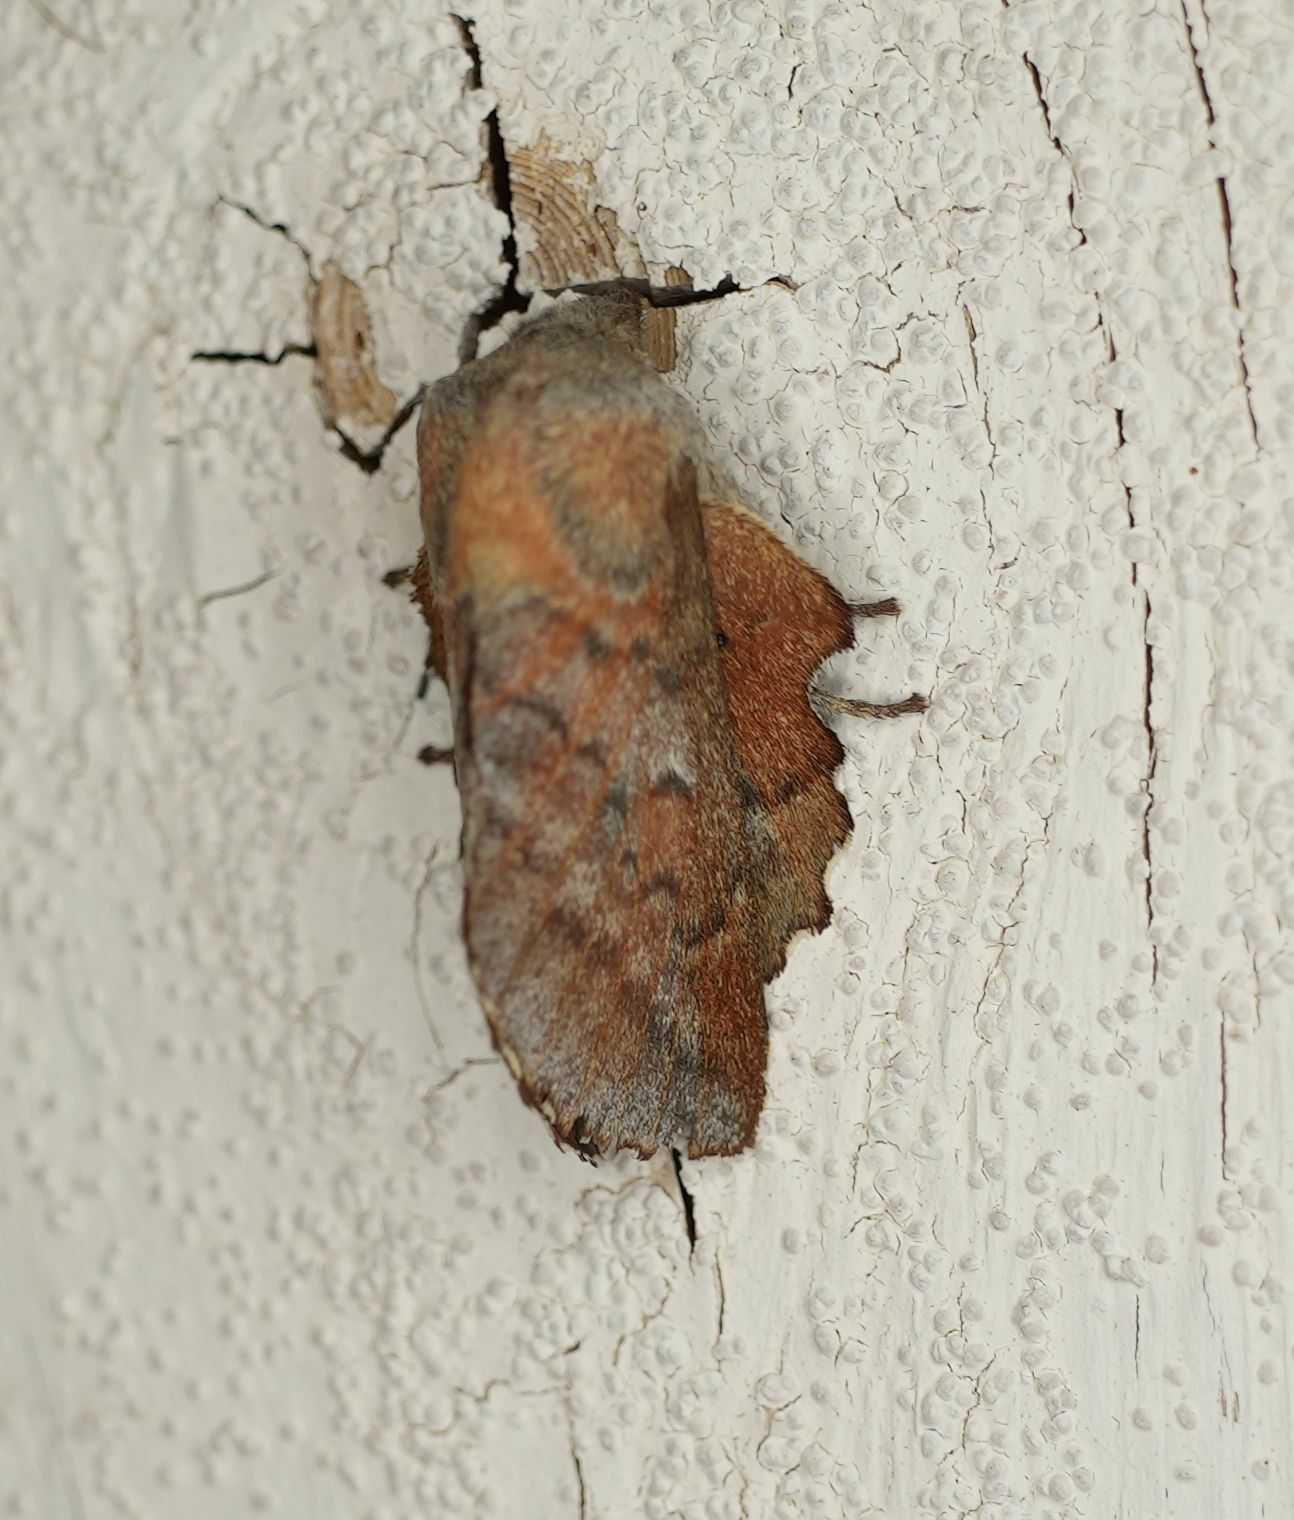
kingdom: Animalia
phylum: Arthropoda
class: Insecta
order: Lepidoptera
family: Lasiocampidae
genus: Phyllodesma
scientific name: Phyllodesma americana
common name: American lappet moth
